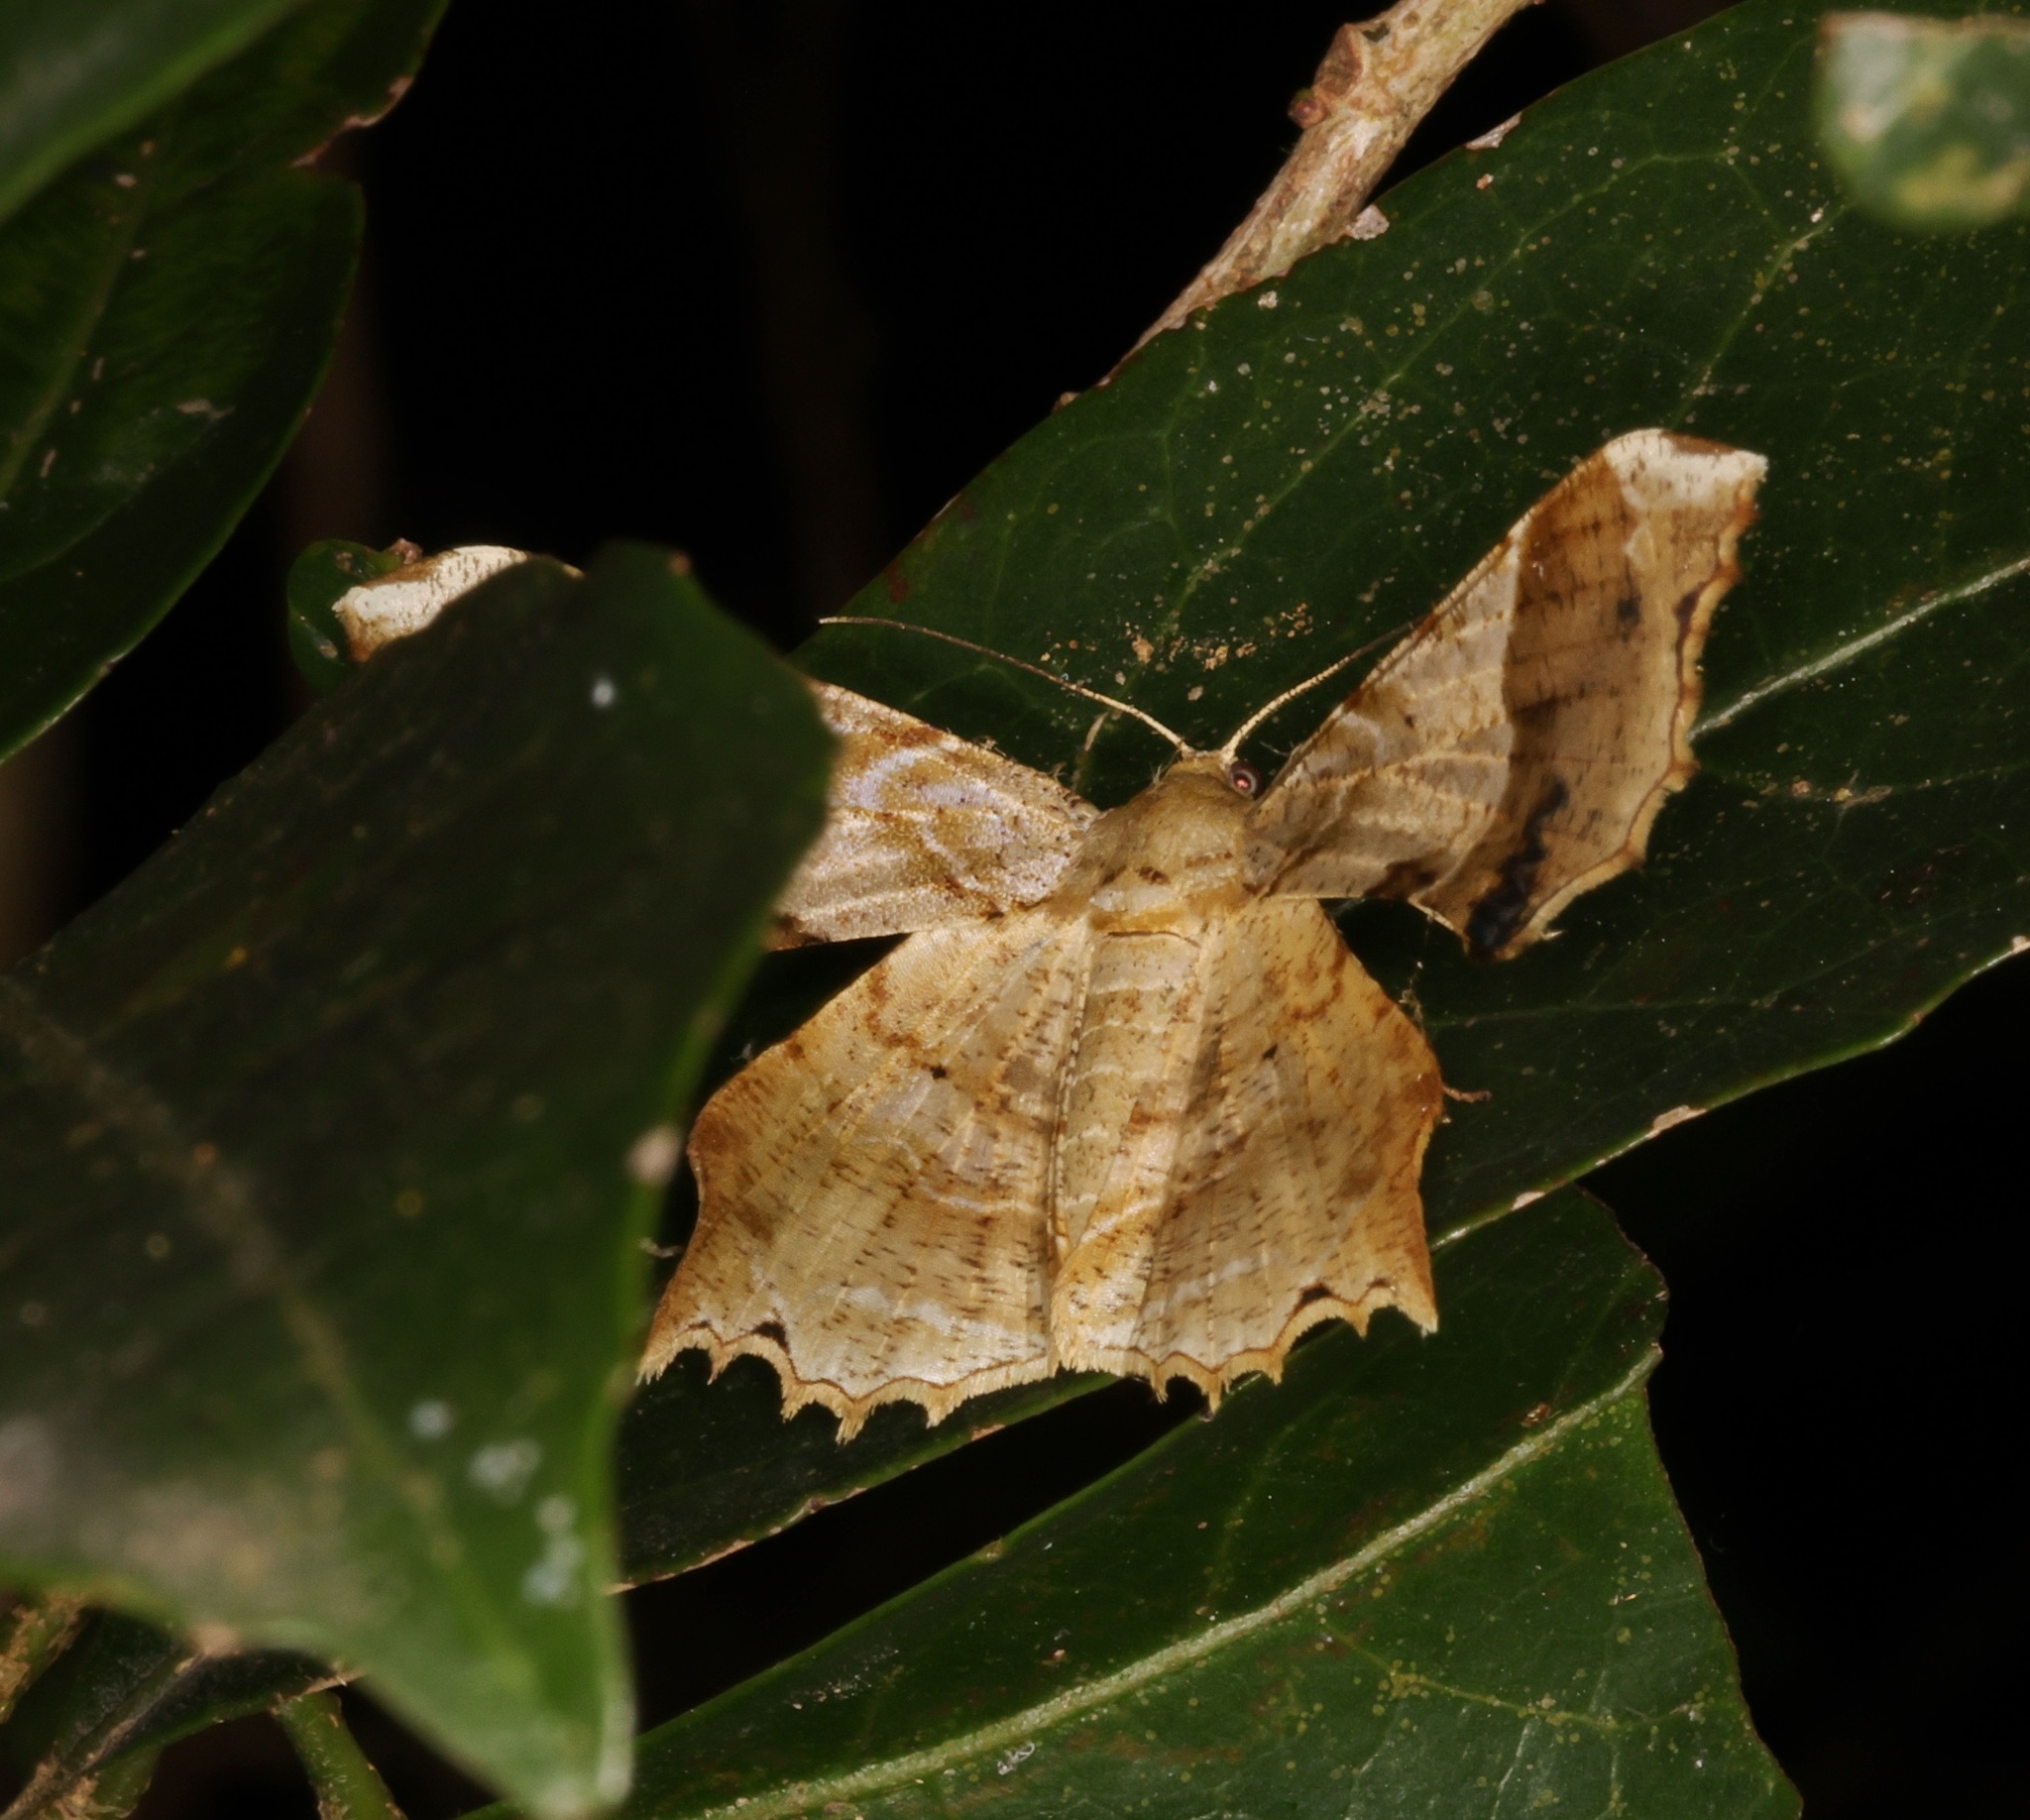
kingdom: Animalia
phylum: Arthropoda
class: Insecta
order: Lepidoptera
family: Geometridae
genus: Krananda
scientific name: Krananda oliveomarginata
